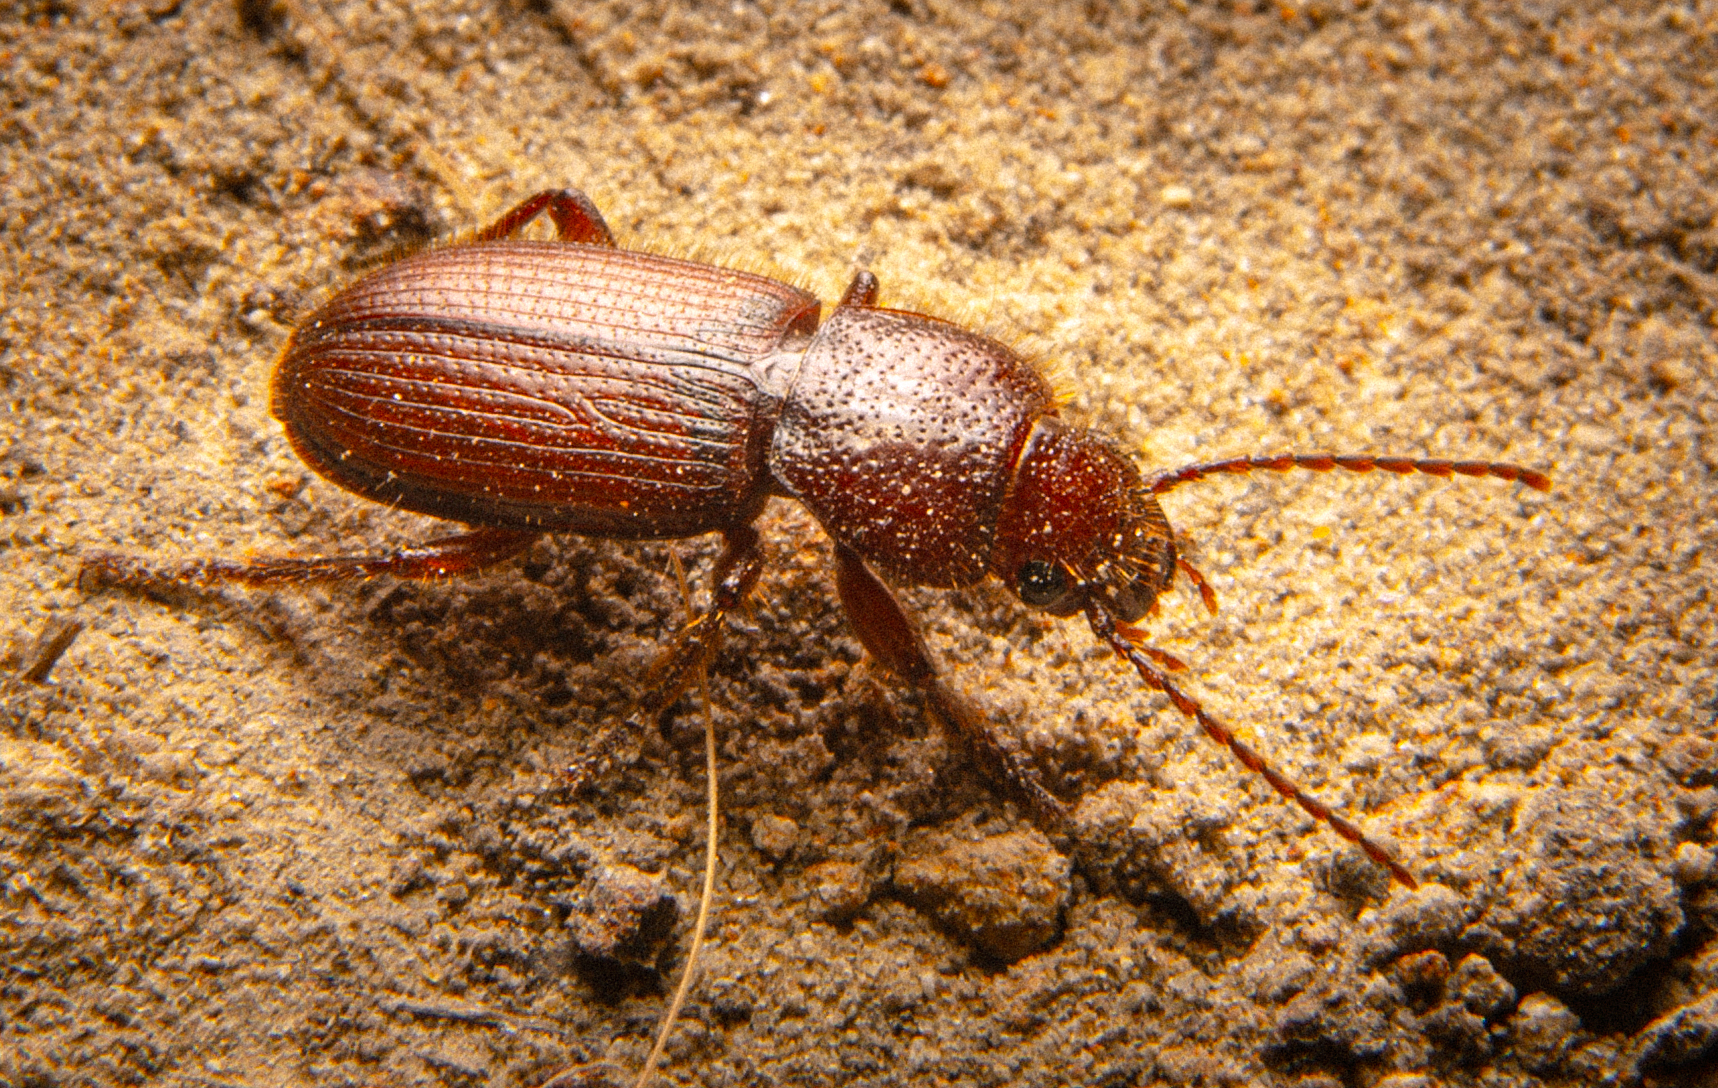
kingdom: Animalia
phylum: Arthropoda
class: Insecta
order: Coleoptera
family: Carabidae
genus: Dicheirus
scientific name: Dicheirus dilatatus
